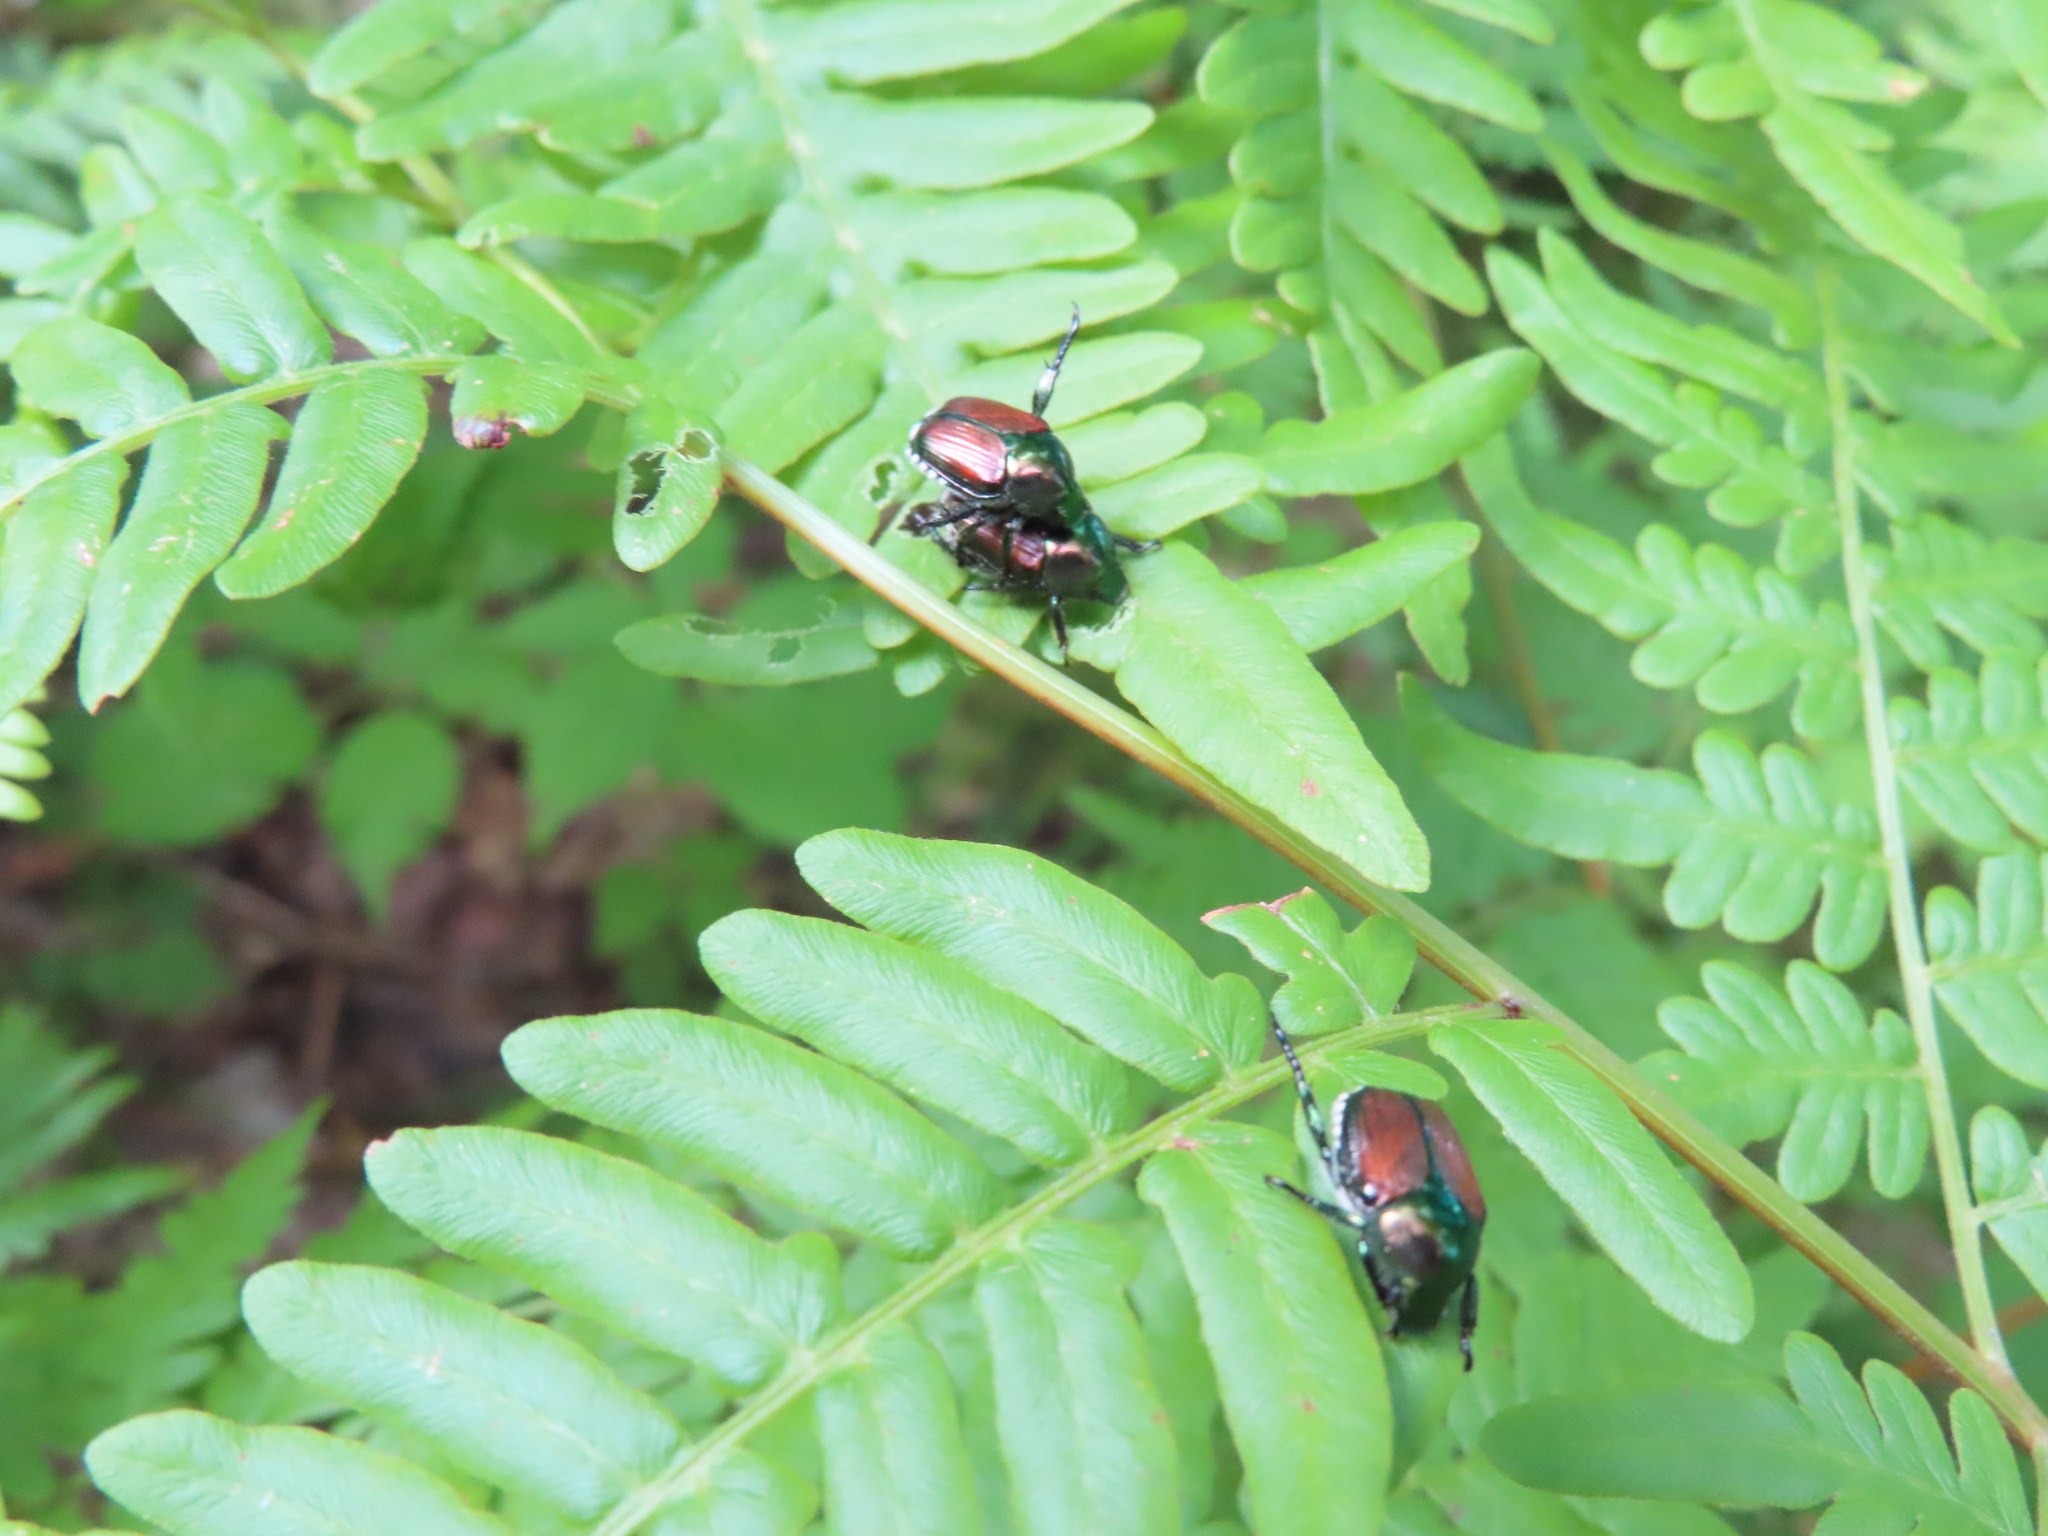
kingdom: Animalia
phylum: Arthropoda
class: Insecta
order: Coleoptera
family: Scarabaeidae
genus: Popillia
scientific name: Popillia japonica
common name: Japanese beetle
